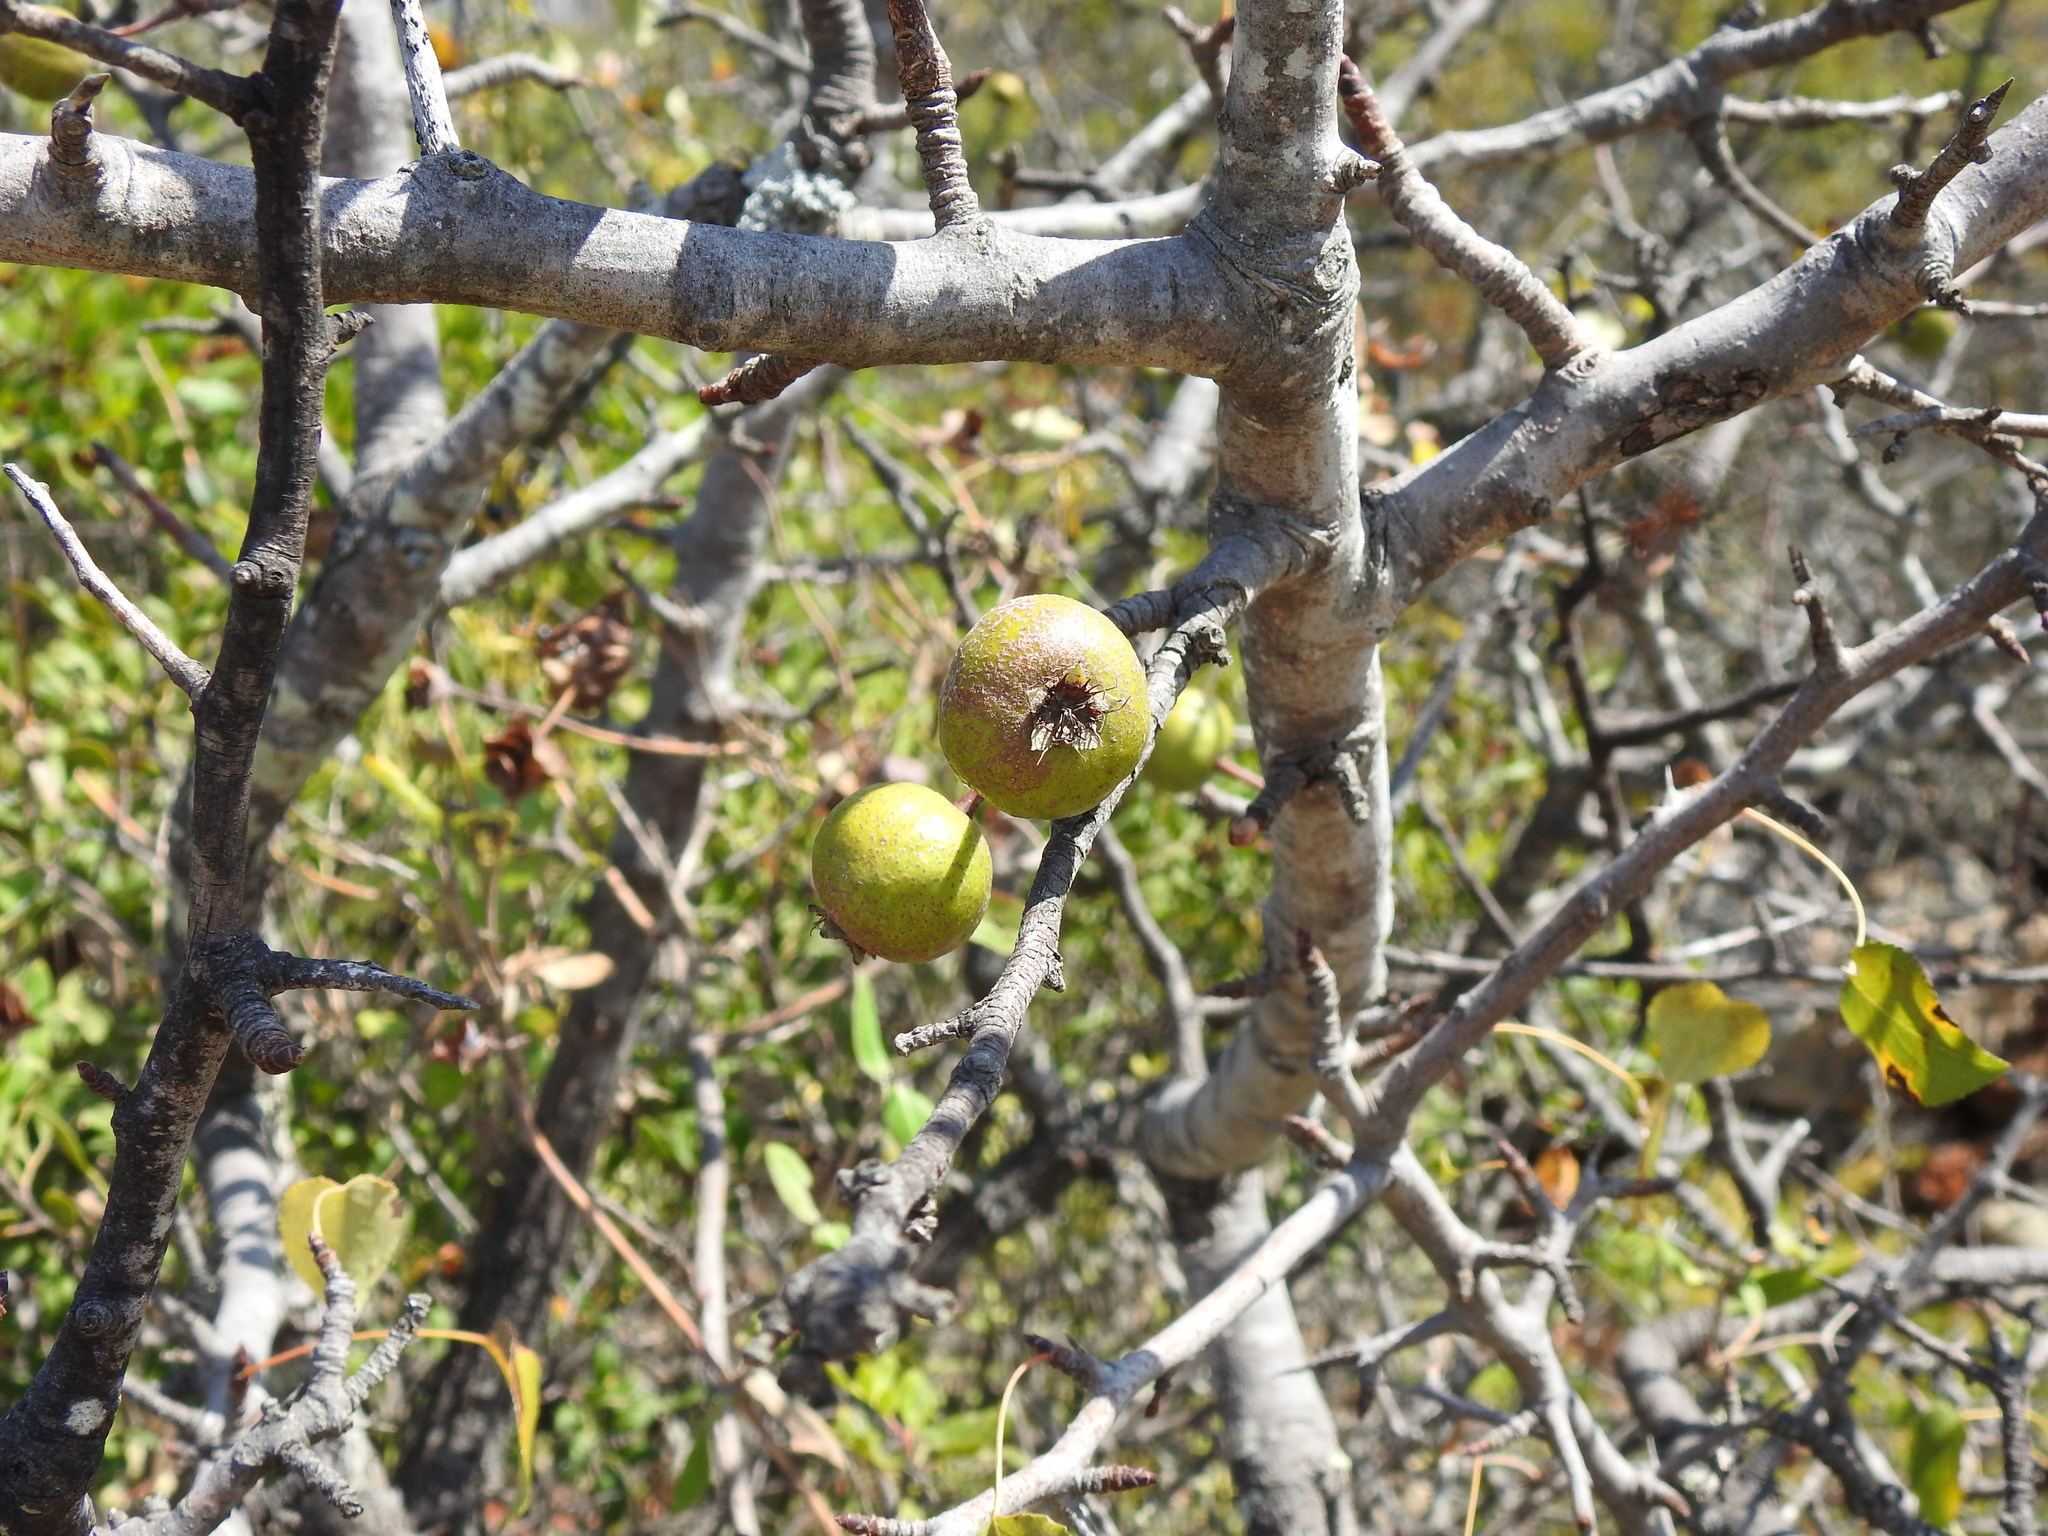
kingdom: Plantae
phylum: Tracheophyta
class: Magnoliopsida
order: Rosales
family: Rosaceae
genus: Pyrus
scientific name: Pyrus bourgaeana
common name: Iberian pear
